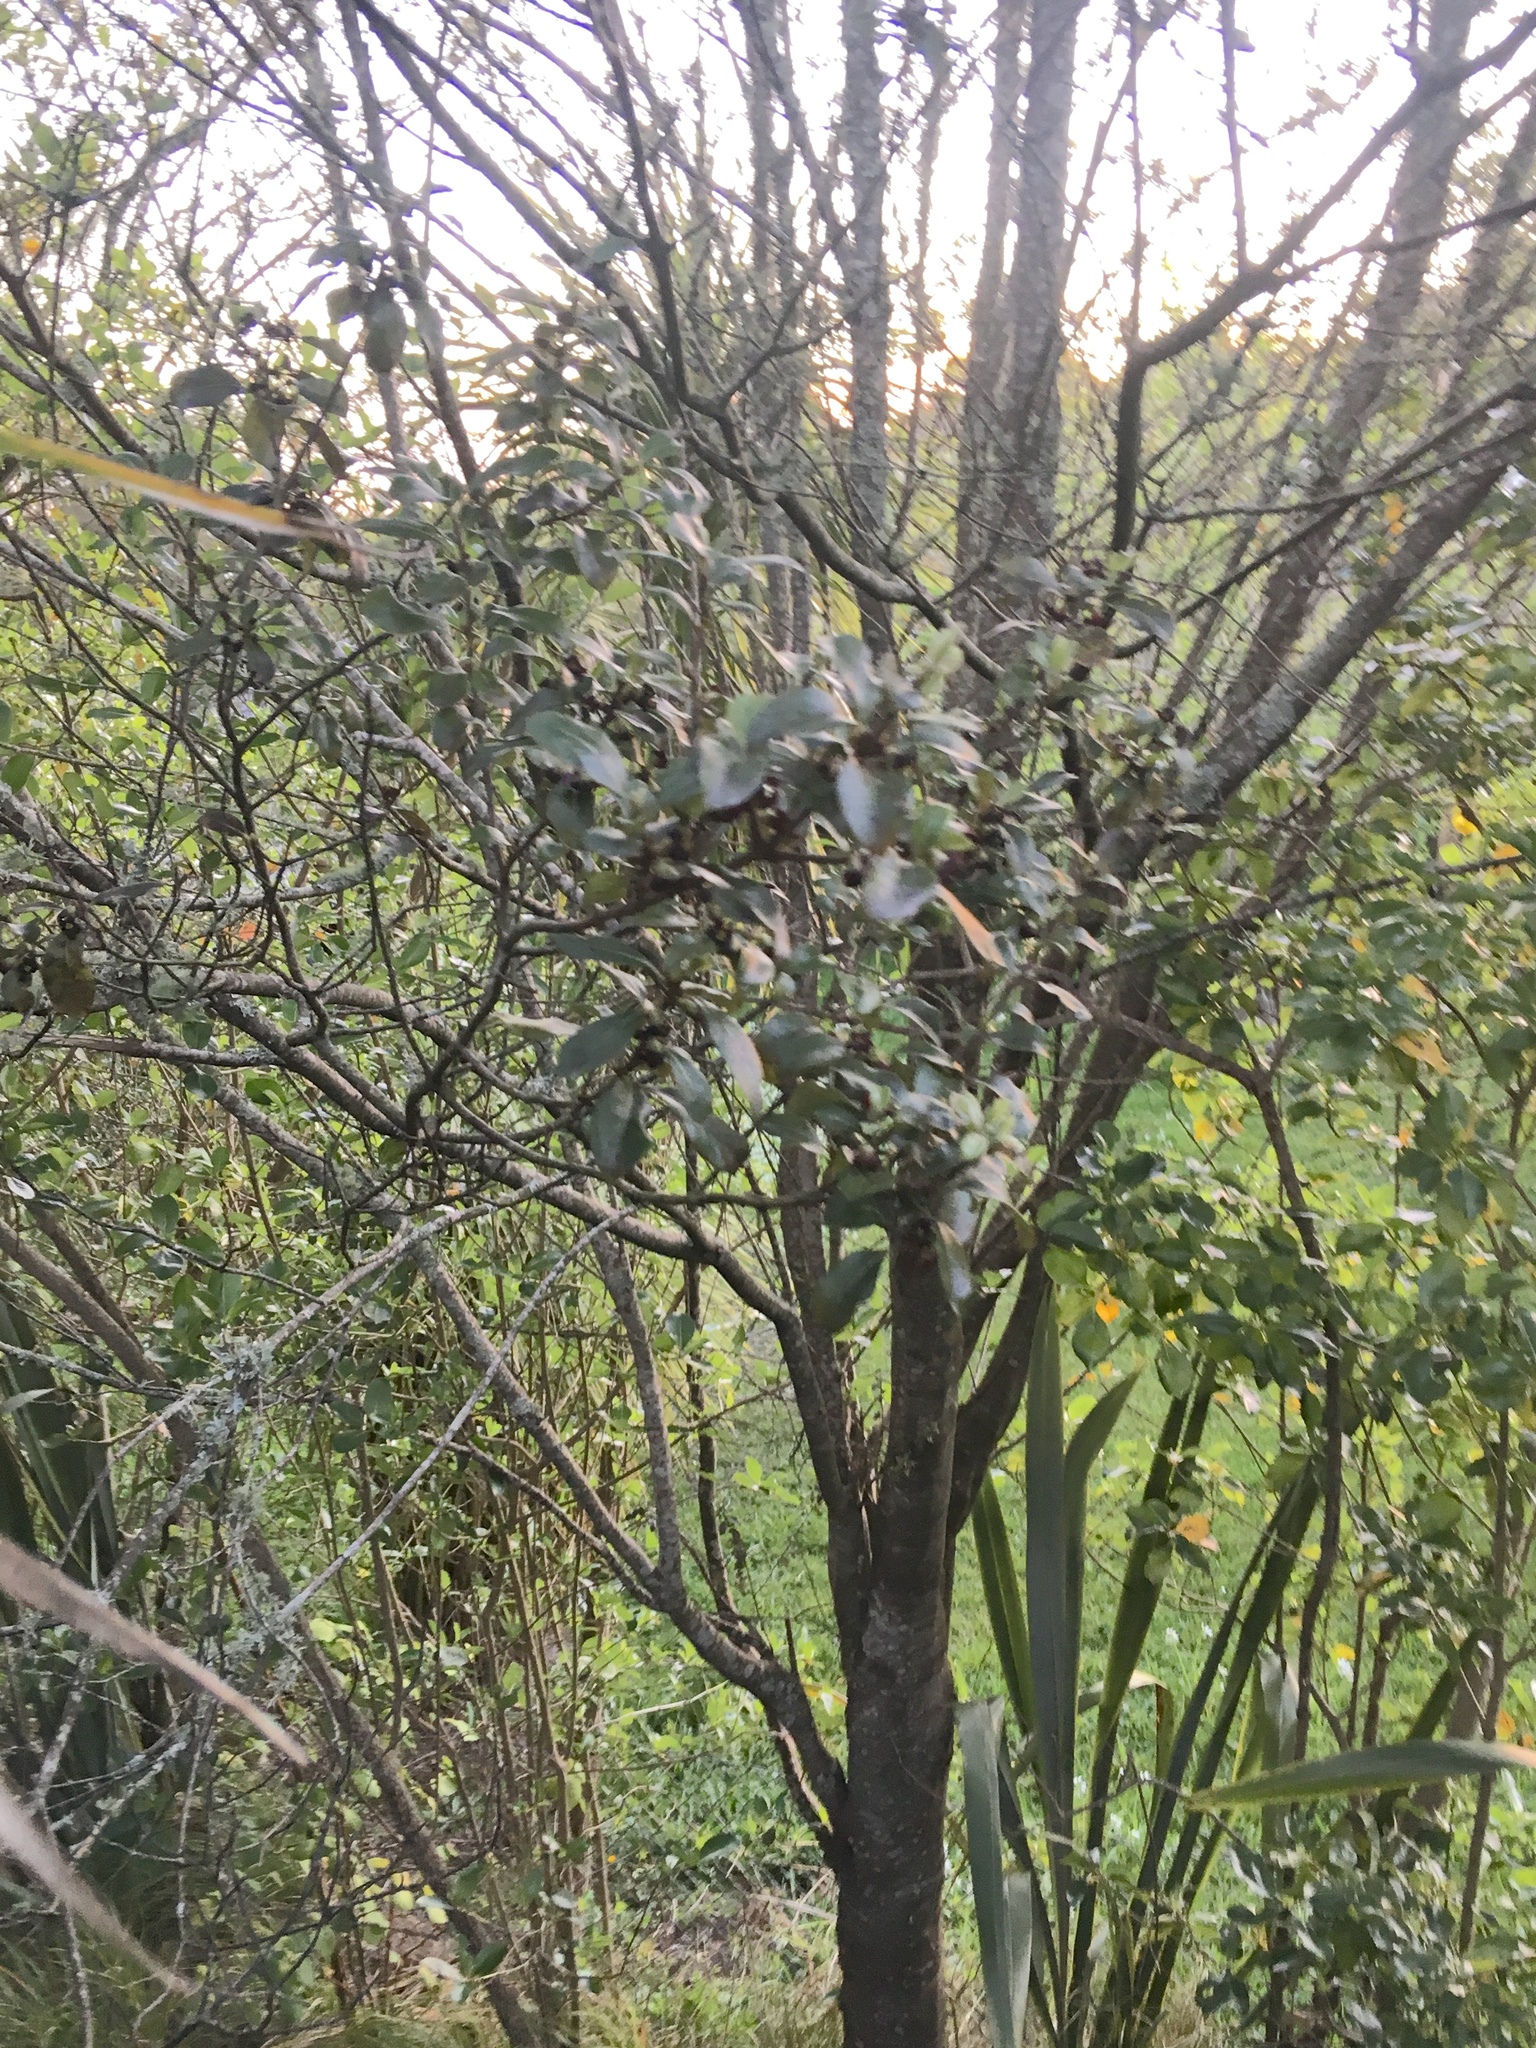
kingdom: Plantae
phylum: Tracheophyta
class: Magnoliopsida
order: Apiales
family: Pittosporaceae
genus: Pittosporum
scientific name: Pittosporum tenuifolium
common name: Kohuhu
